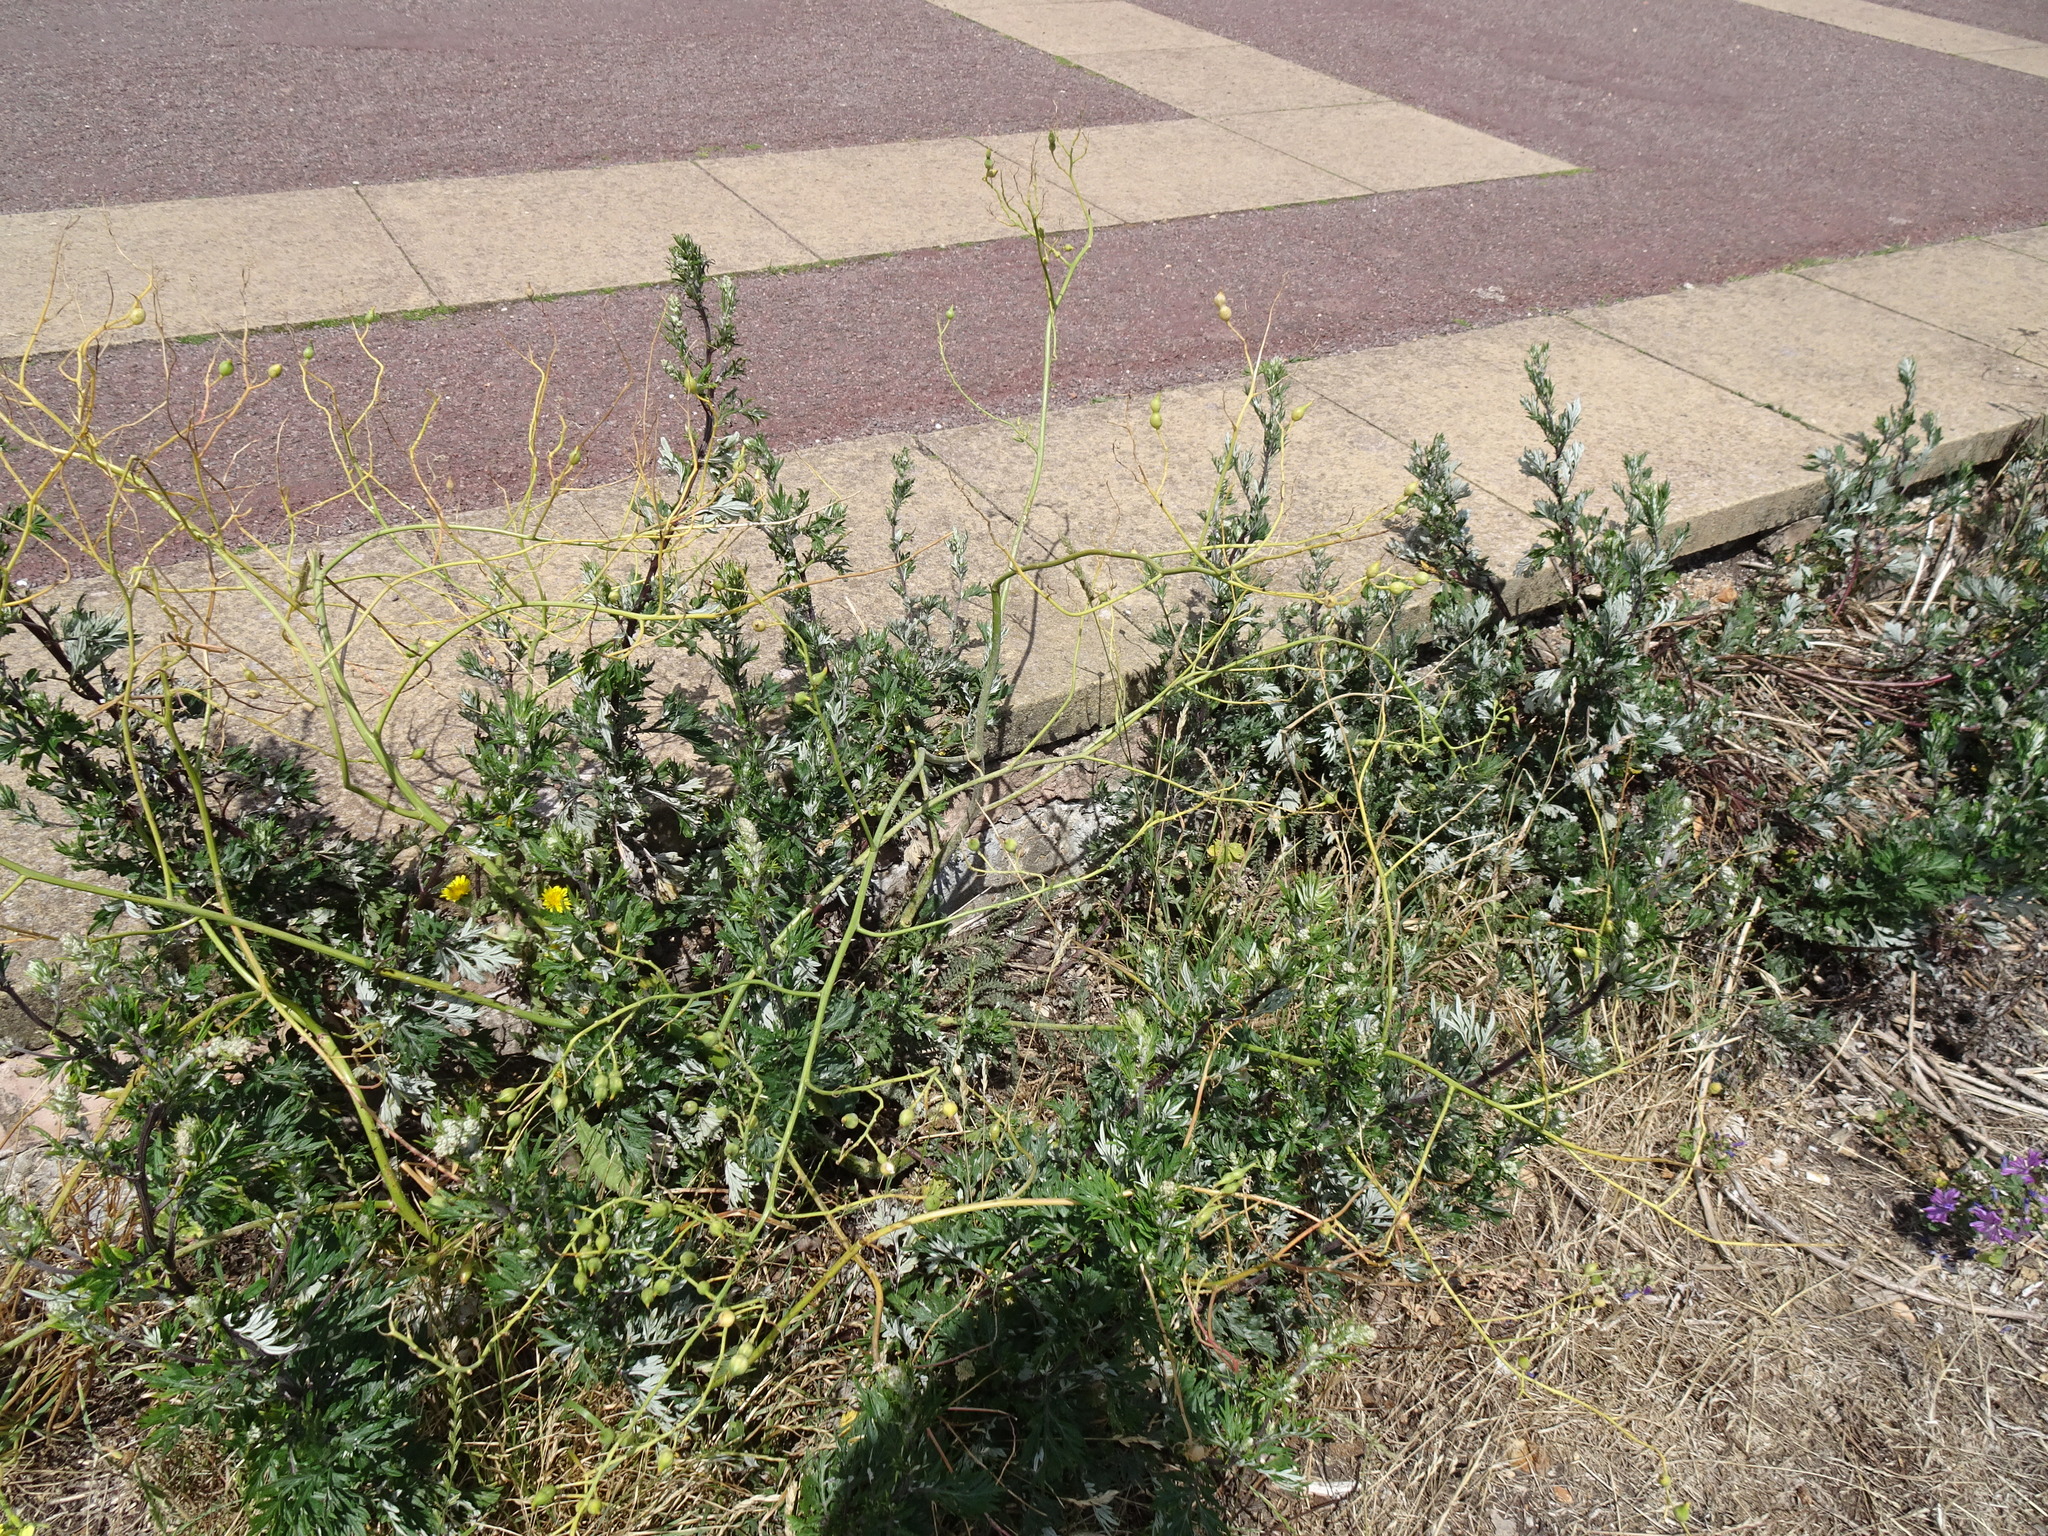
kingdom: Plantae
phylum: Tracheophyta
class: Magnoliopsida
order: Asterales
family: Asteraceae
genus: Artemisia
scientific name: Artemisia vulgaris
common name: Mugwort
